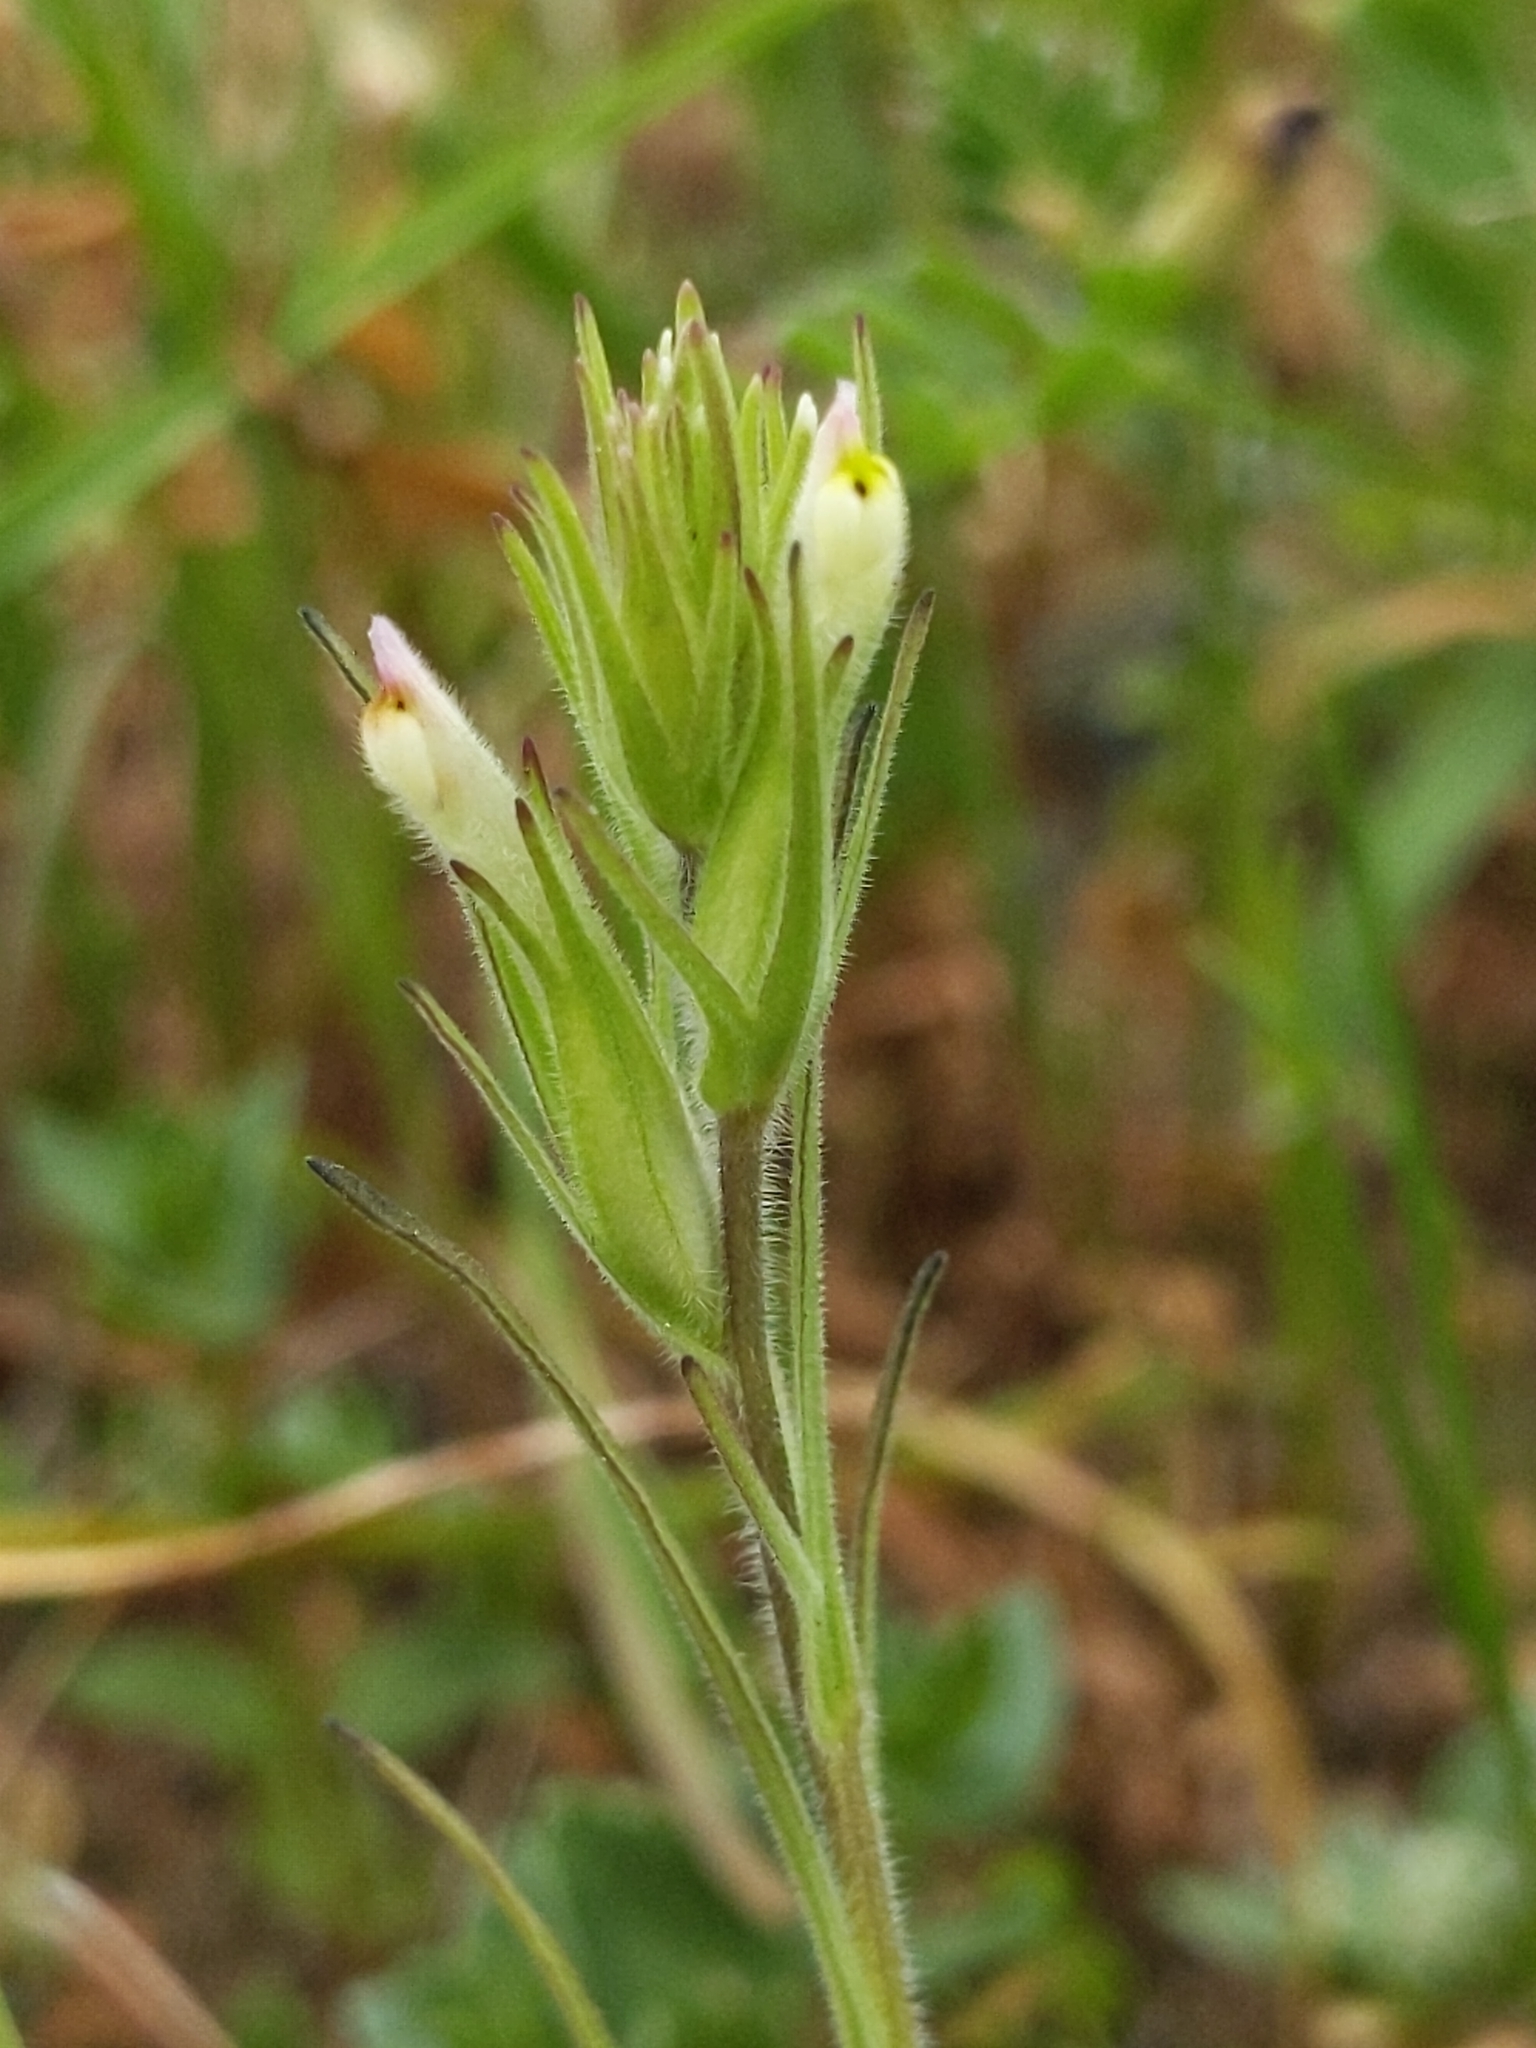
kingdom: Plantae
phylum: Tracheophyta
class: Magnoliopsida
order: Lamiales
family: Orobanchaceae
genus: Castilleja
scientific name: Castilleja attenuata
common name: Valley tassels
